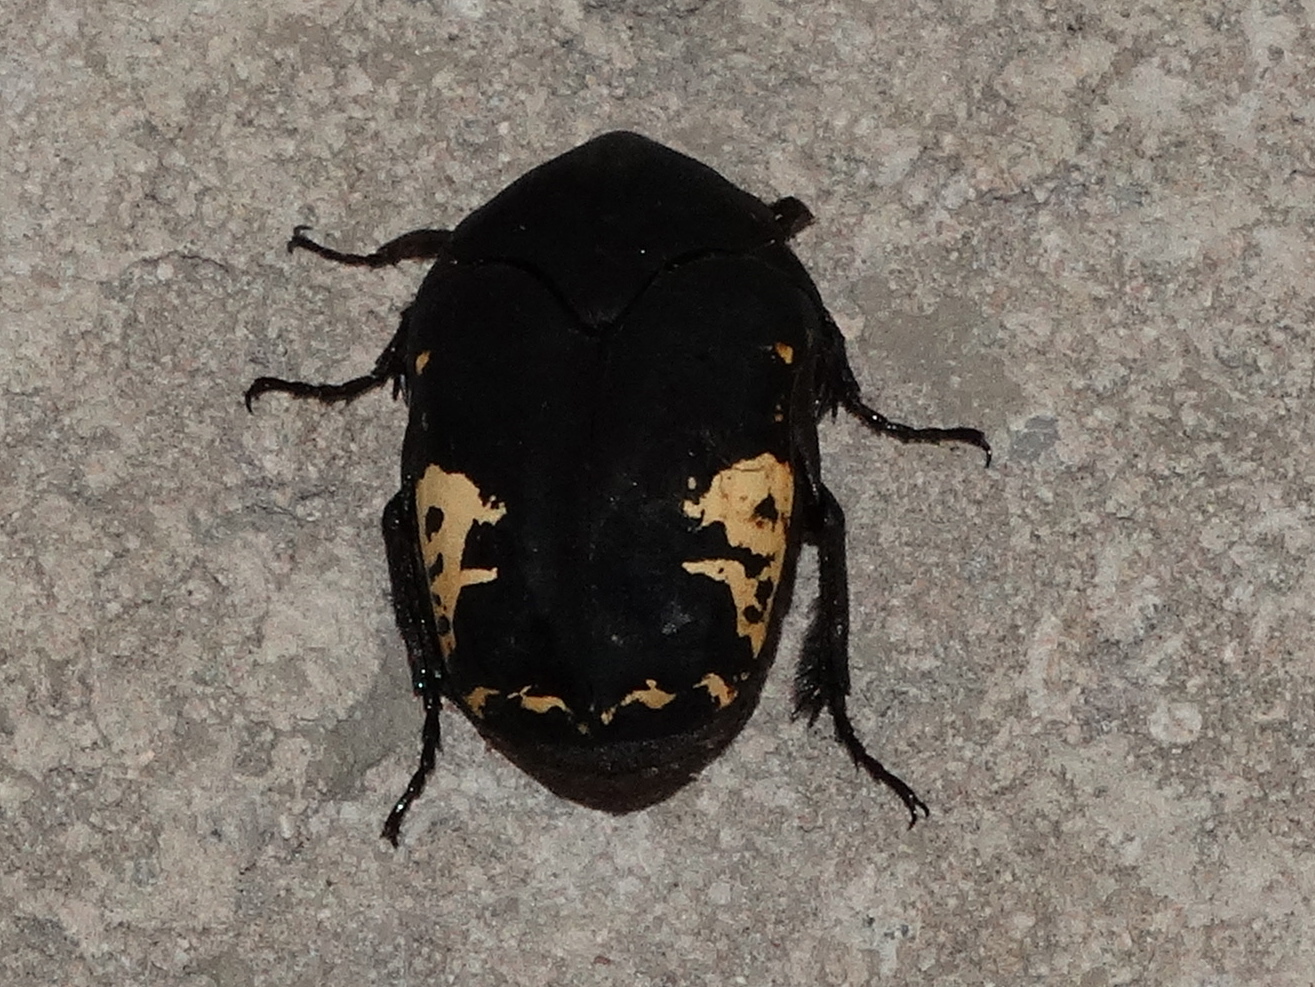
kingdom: Animalia
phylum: Arthropoda
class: Insecta
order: Coleoptera
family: Scarabaeidae
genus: Gymnetis
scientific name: Gymnetis
